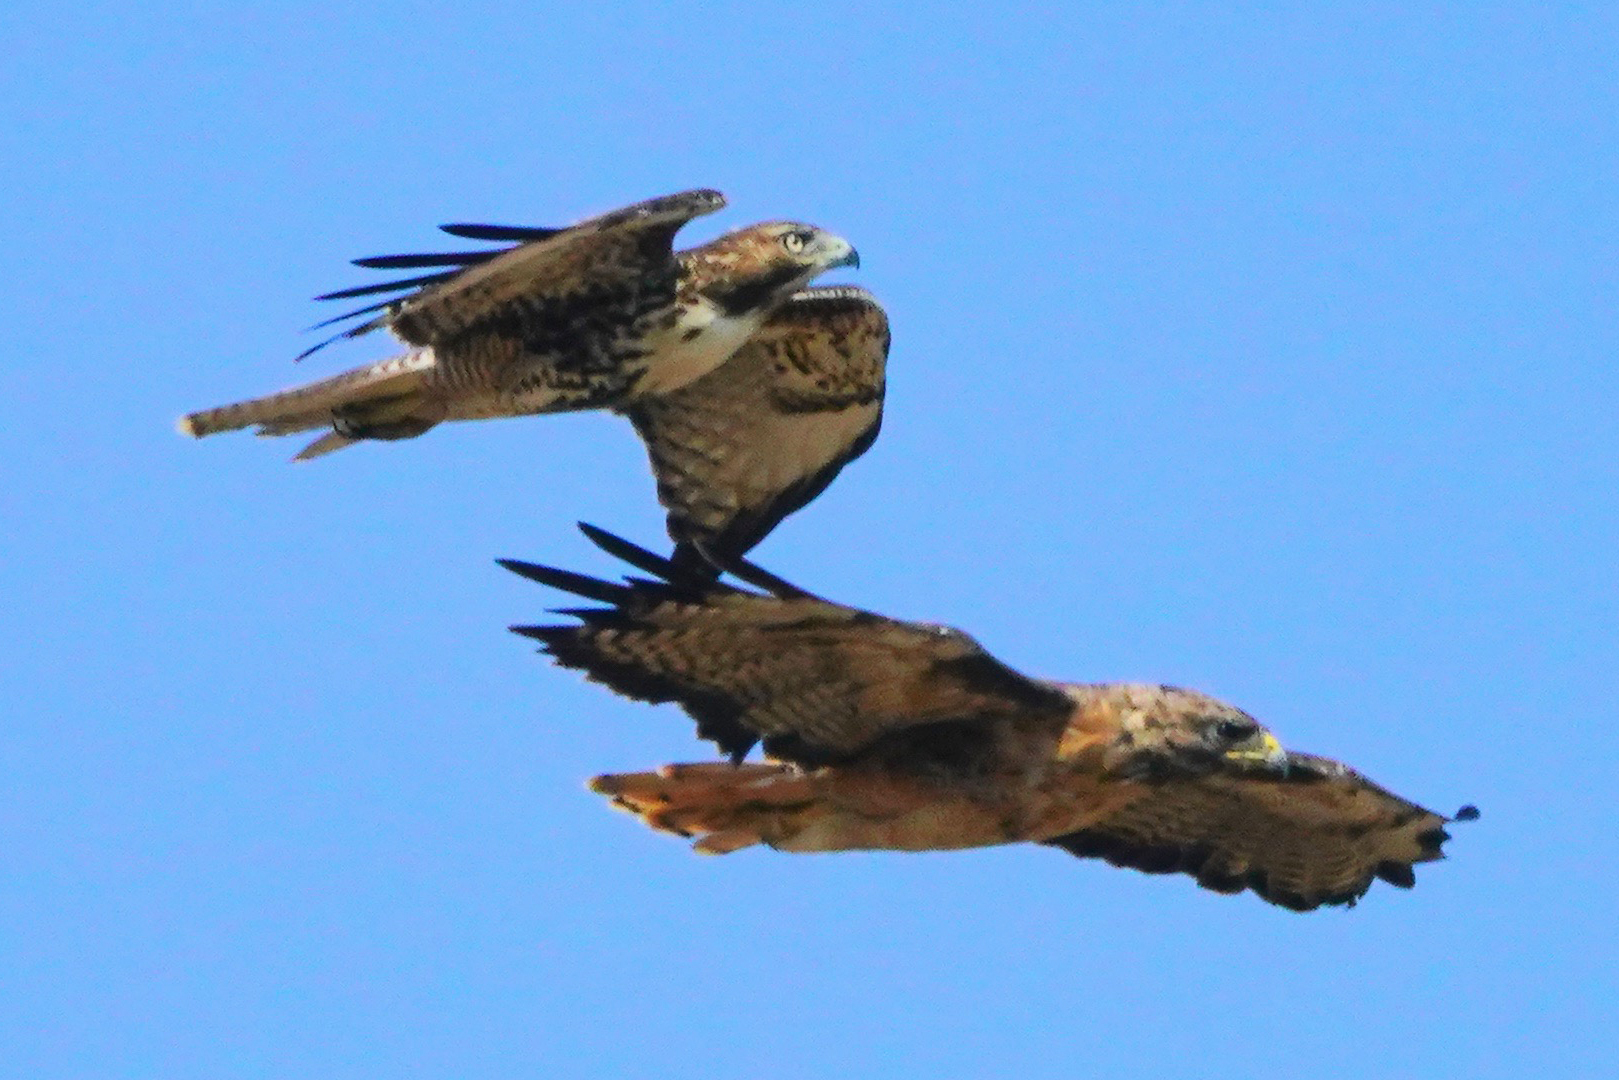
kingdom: Animalia
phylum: Chordata
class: Aves
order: Accipitriformes
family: Accipitridae
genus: Buteo
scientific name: Buteo jamaicensis
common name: Red-tailed hawk
